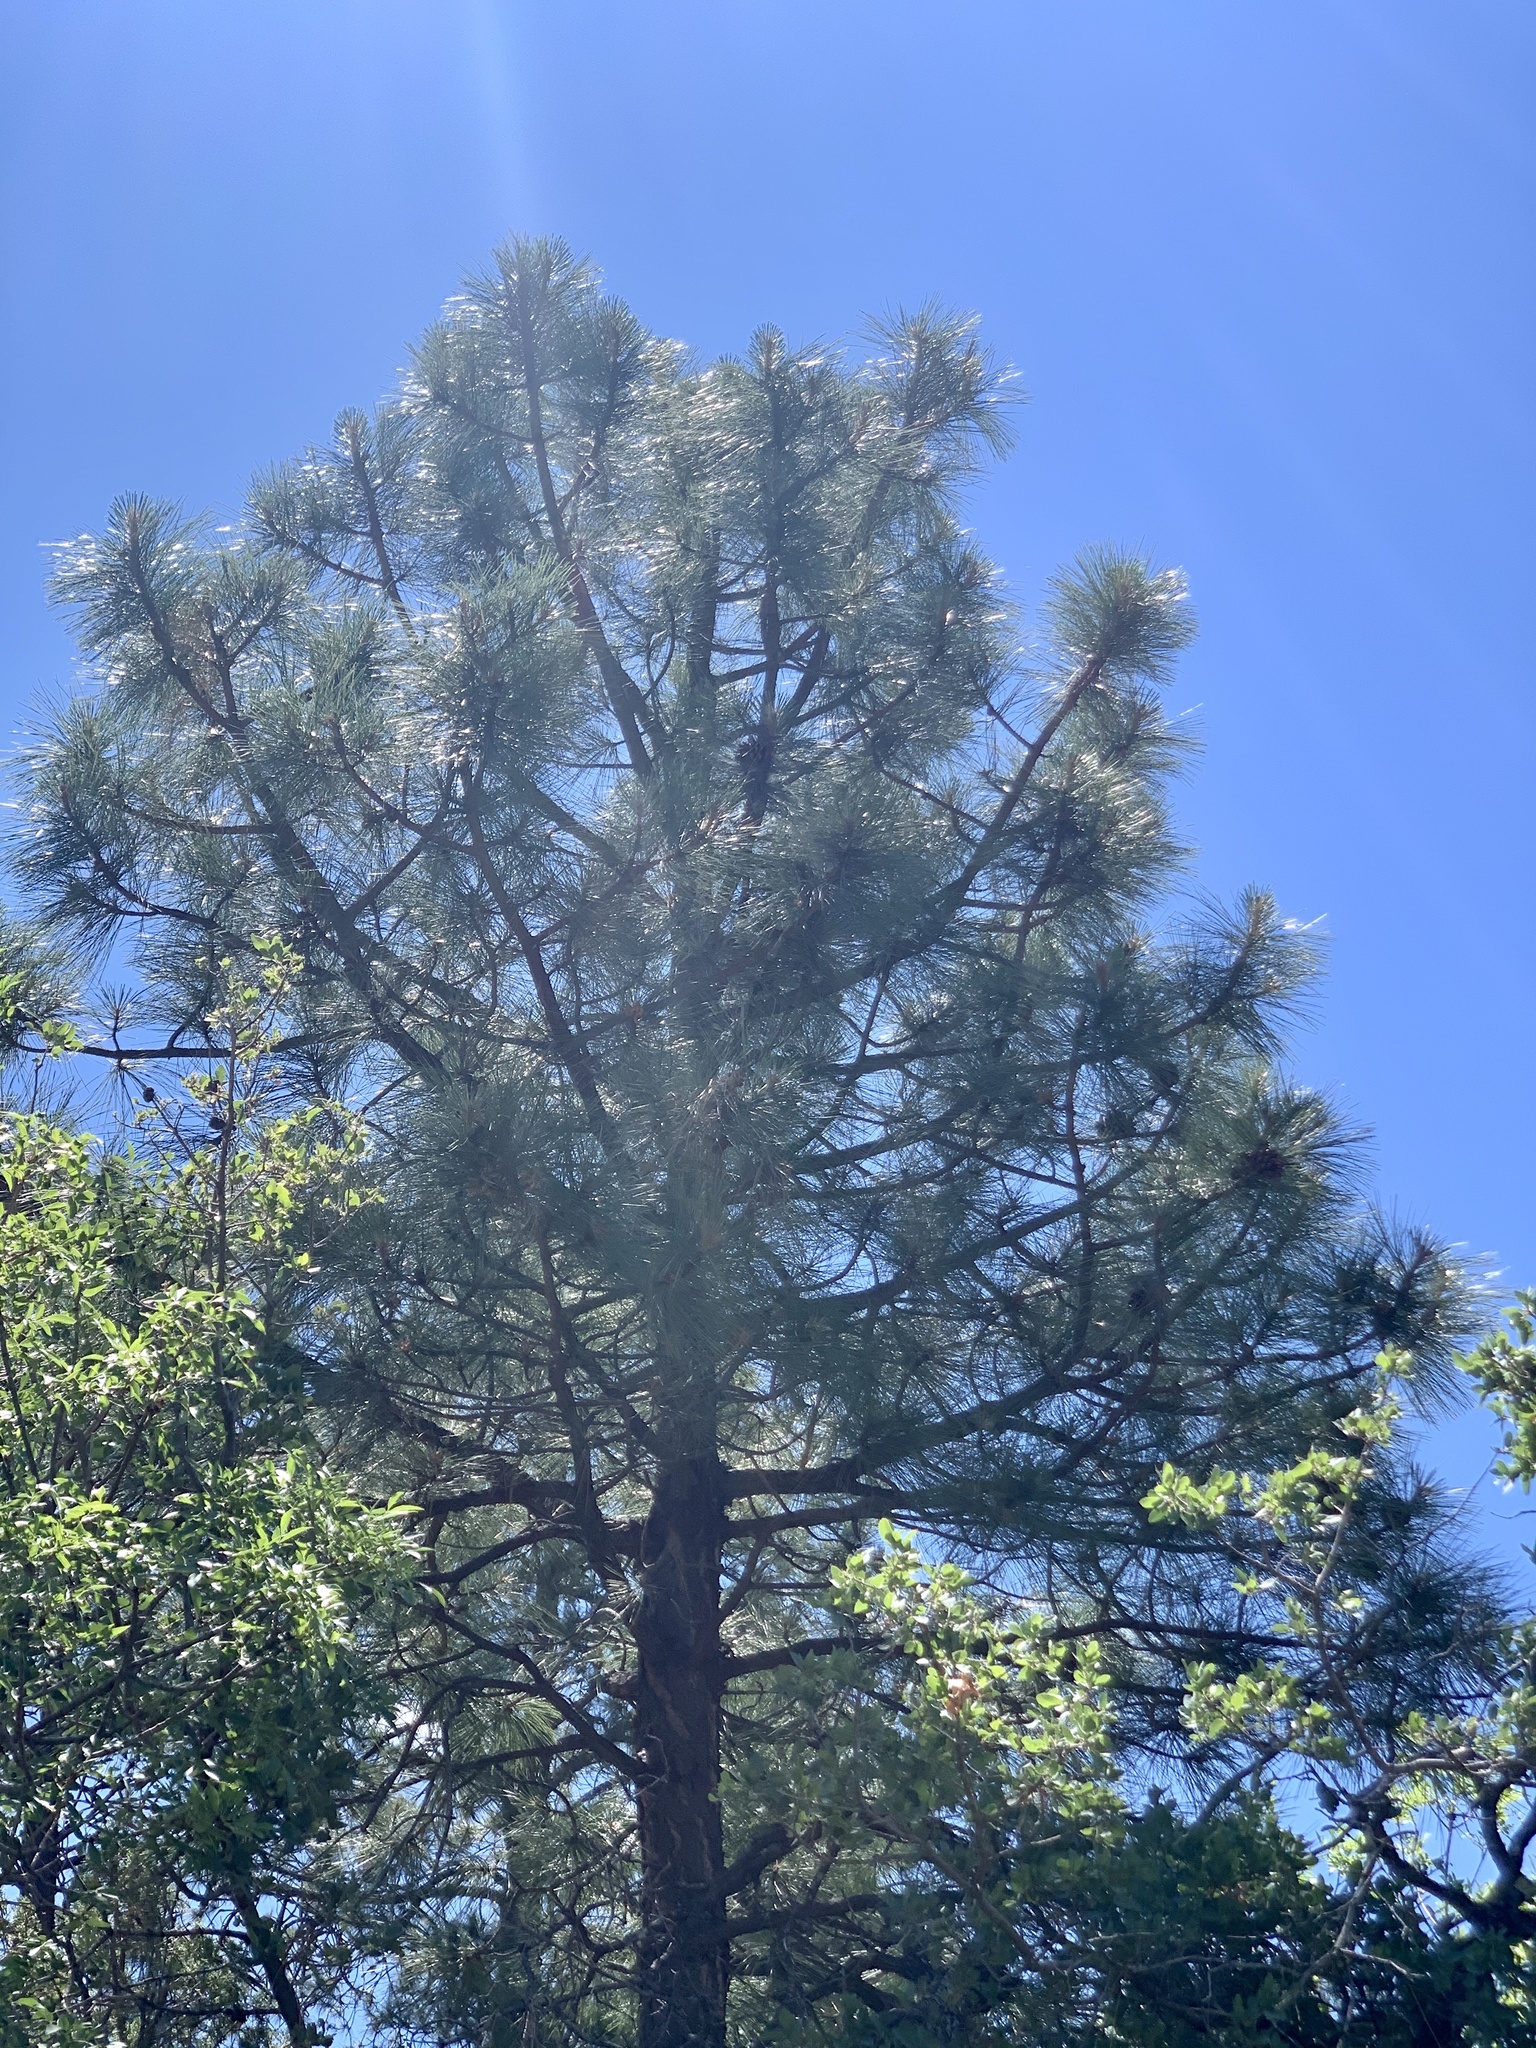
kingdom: Plantae
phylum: Tracheophyta
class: Pinopsida
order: Pinales
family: Pinaceae
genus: Pinus
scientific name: Pinus ponderosa
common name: Western yellow-pine
